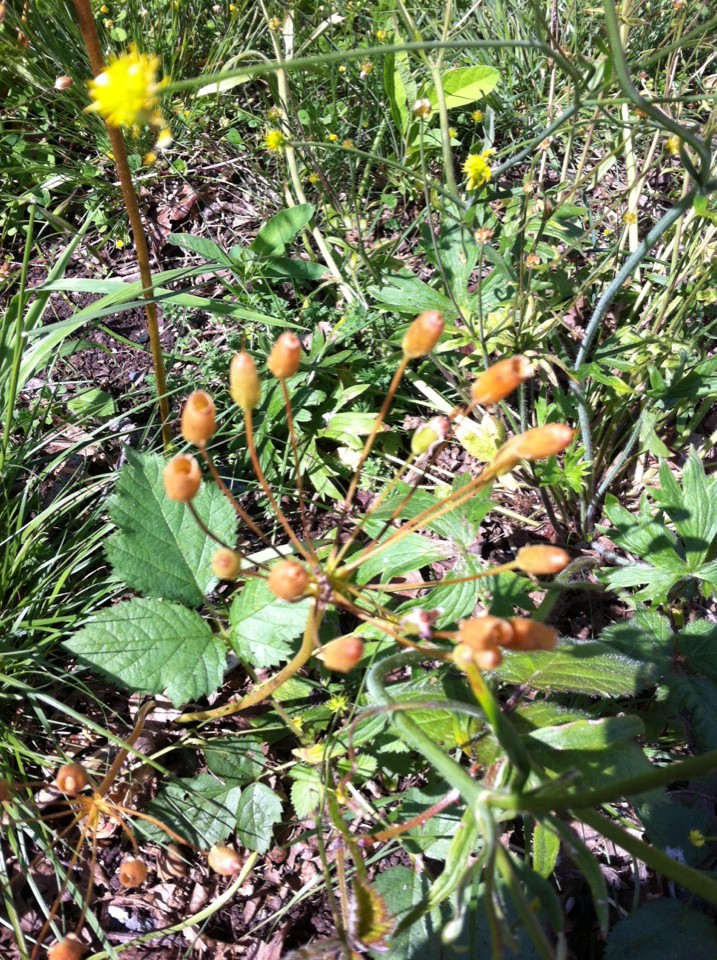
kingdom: Plantae
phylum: Tracheophyta
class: Magnoliopsida
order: Ericales
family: Primulaceae
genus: Dodecatheon
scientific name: Dodecatheon hendersonii
